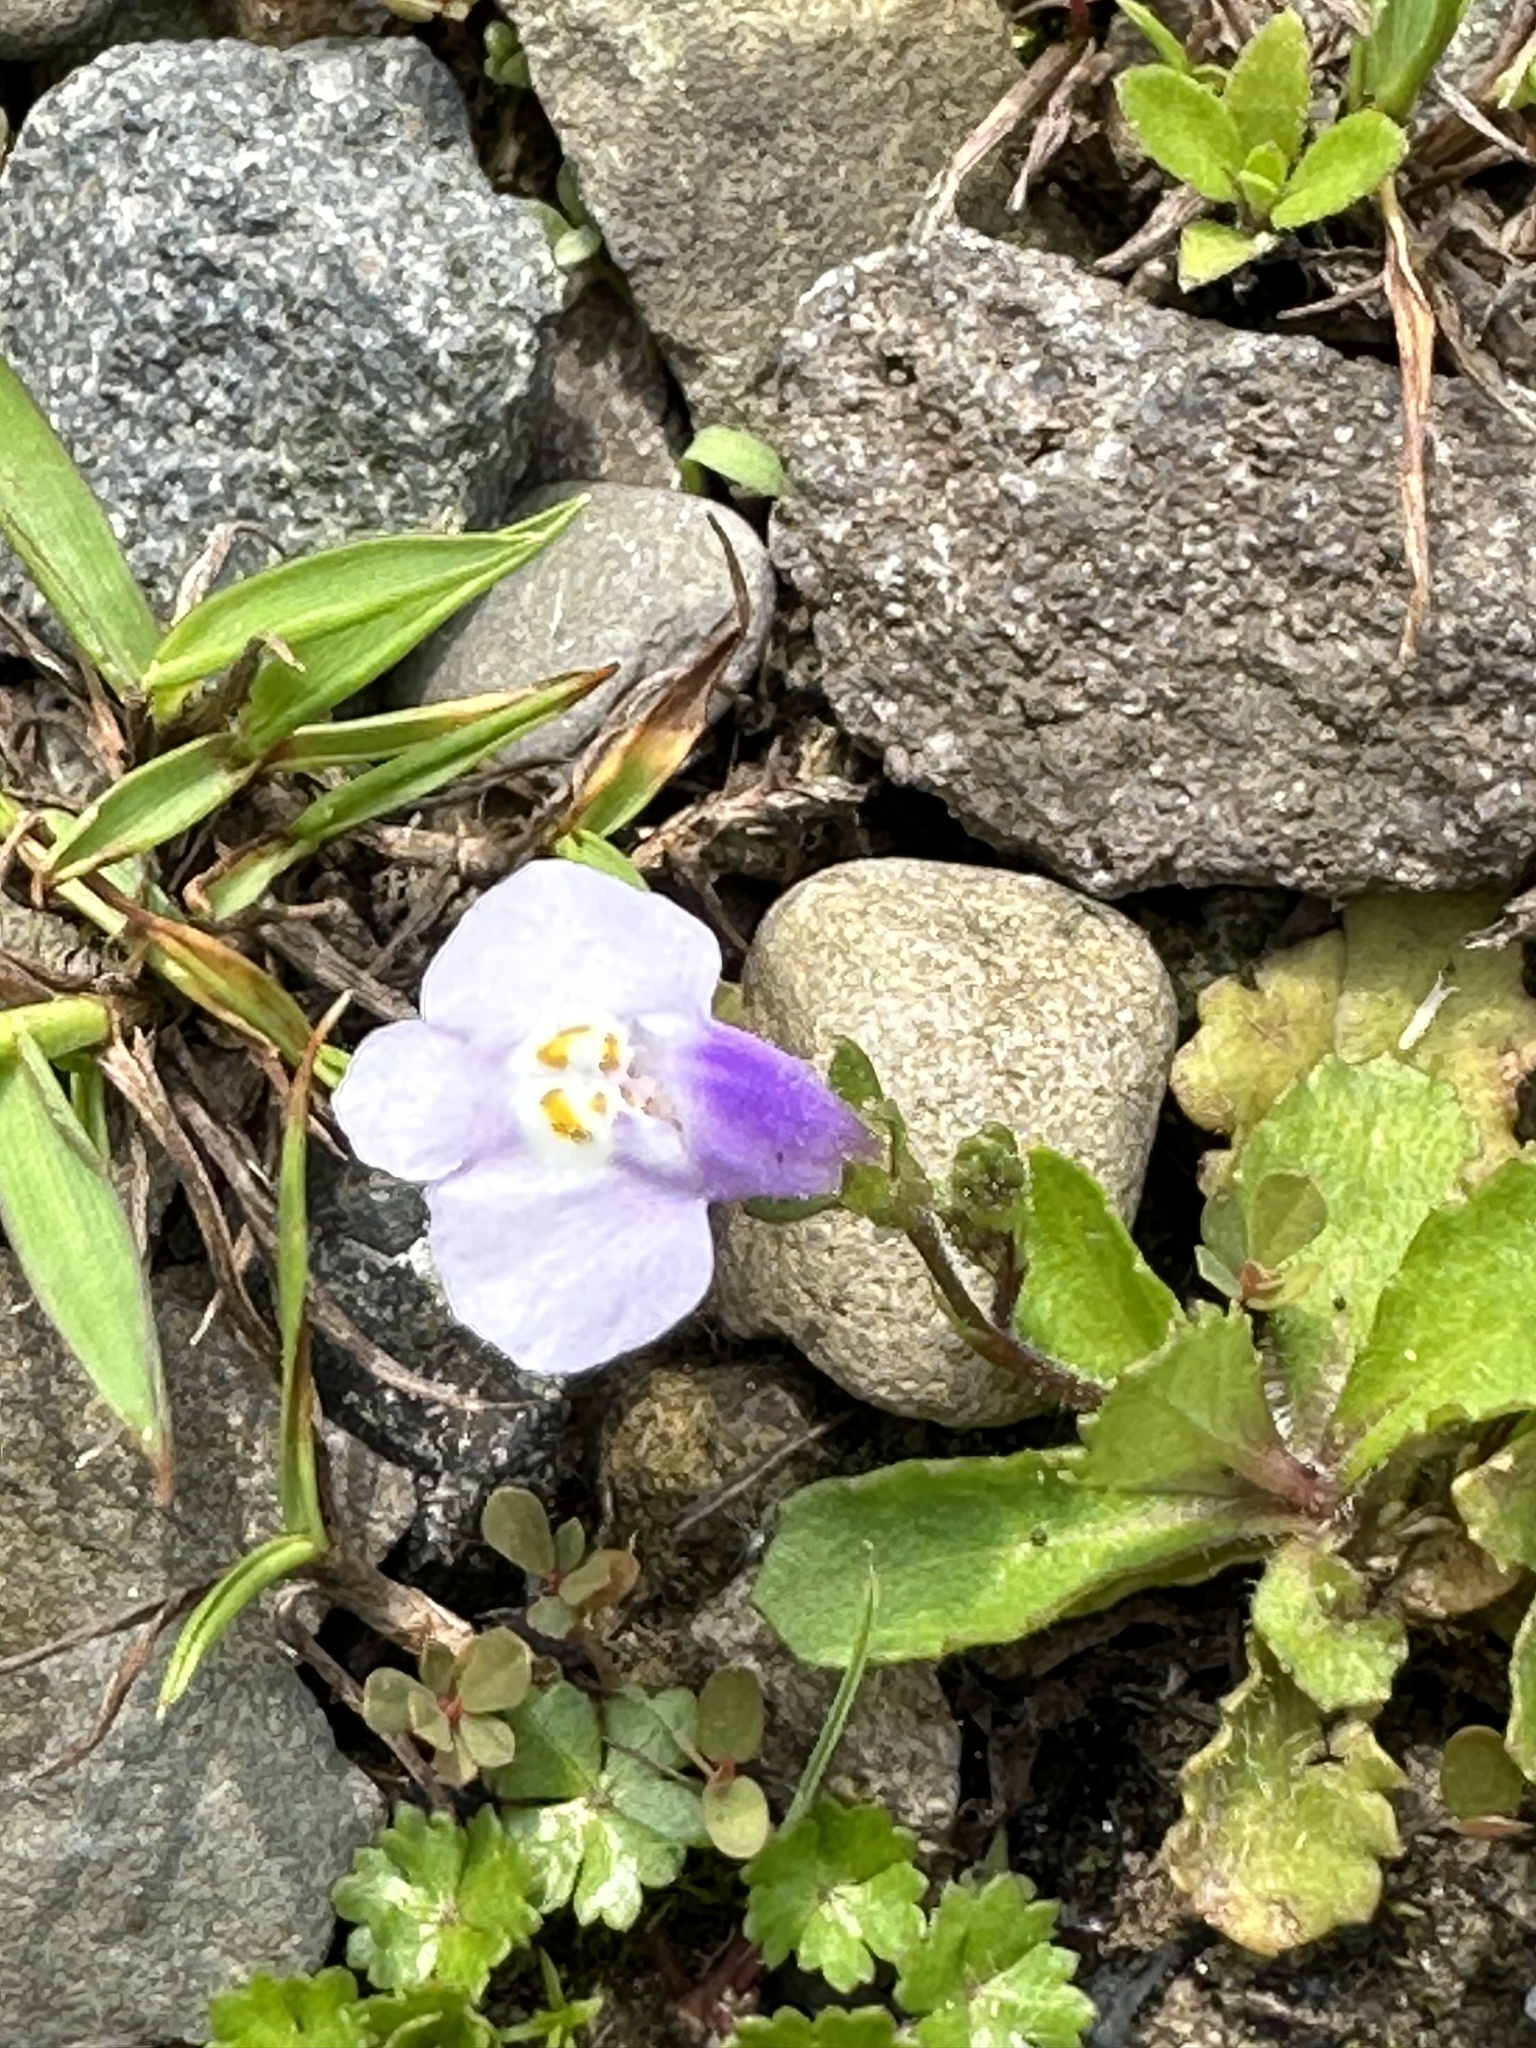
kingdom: Plantae
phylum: Tracheophyta
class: Magnoliopsida
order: Lamiales
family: Mazaceae
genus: Mazus
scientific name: Mazus fauriei
